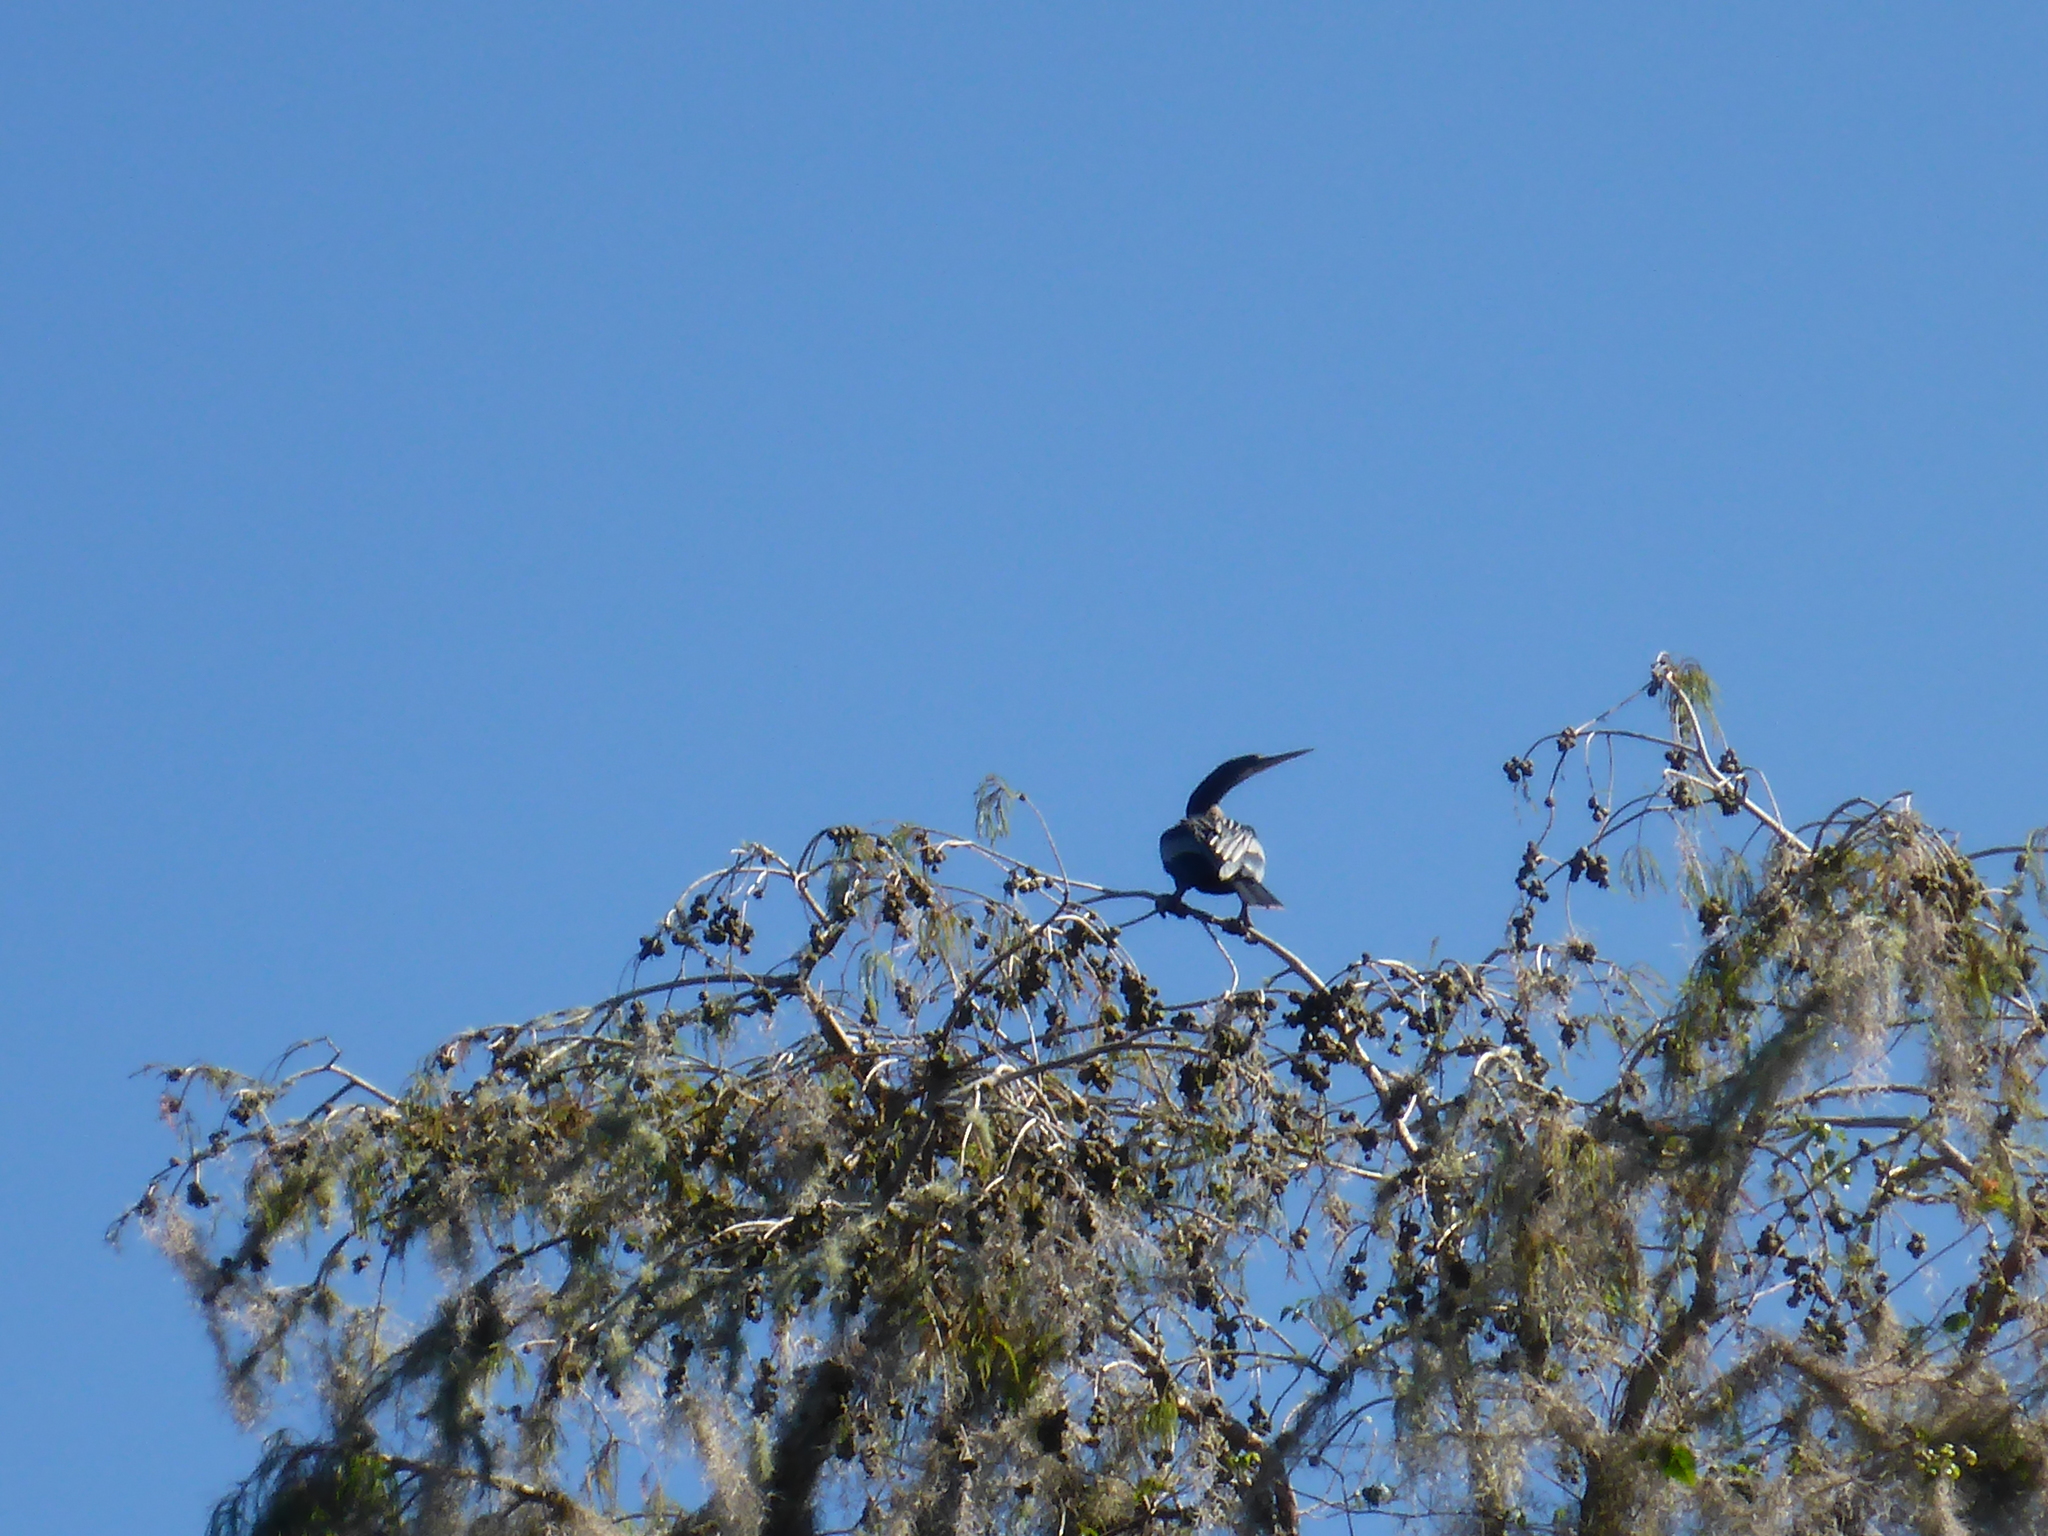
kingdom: Animalia
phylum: Chordata
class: Aves
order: Suliformes
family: Anhingidae
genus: Anhinga
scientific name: Anhinga anhinga
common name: Anhinga
